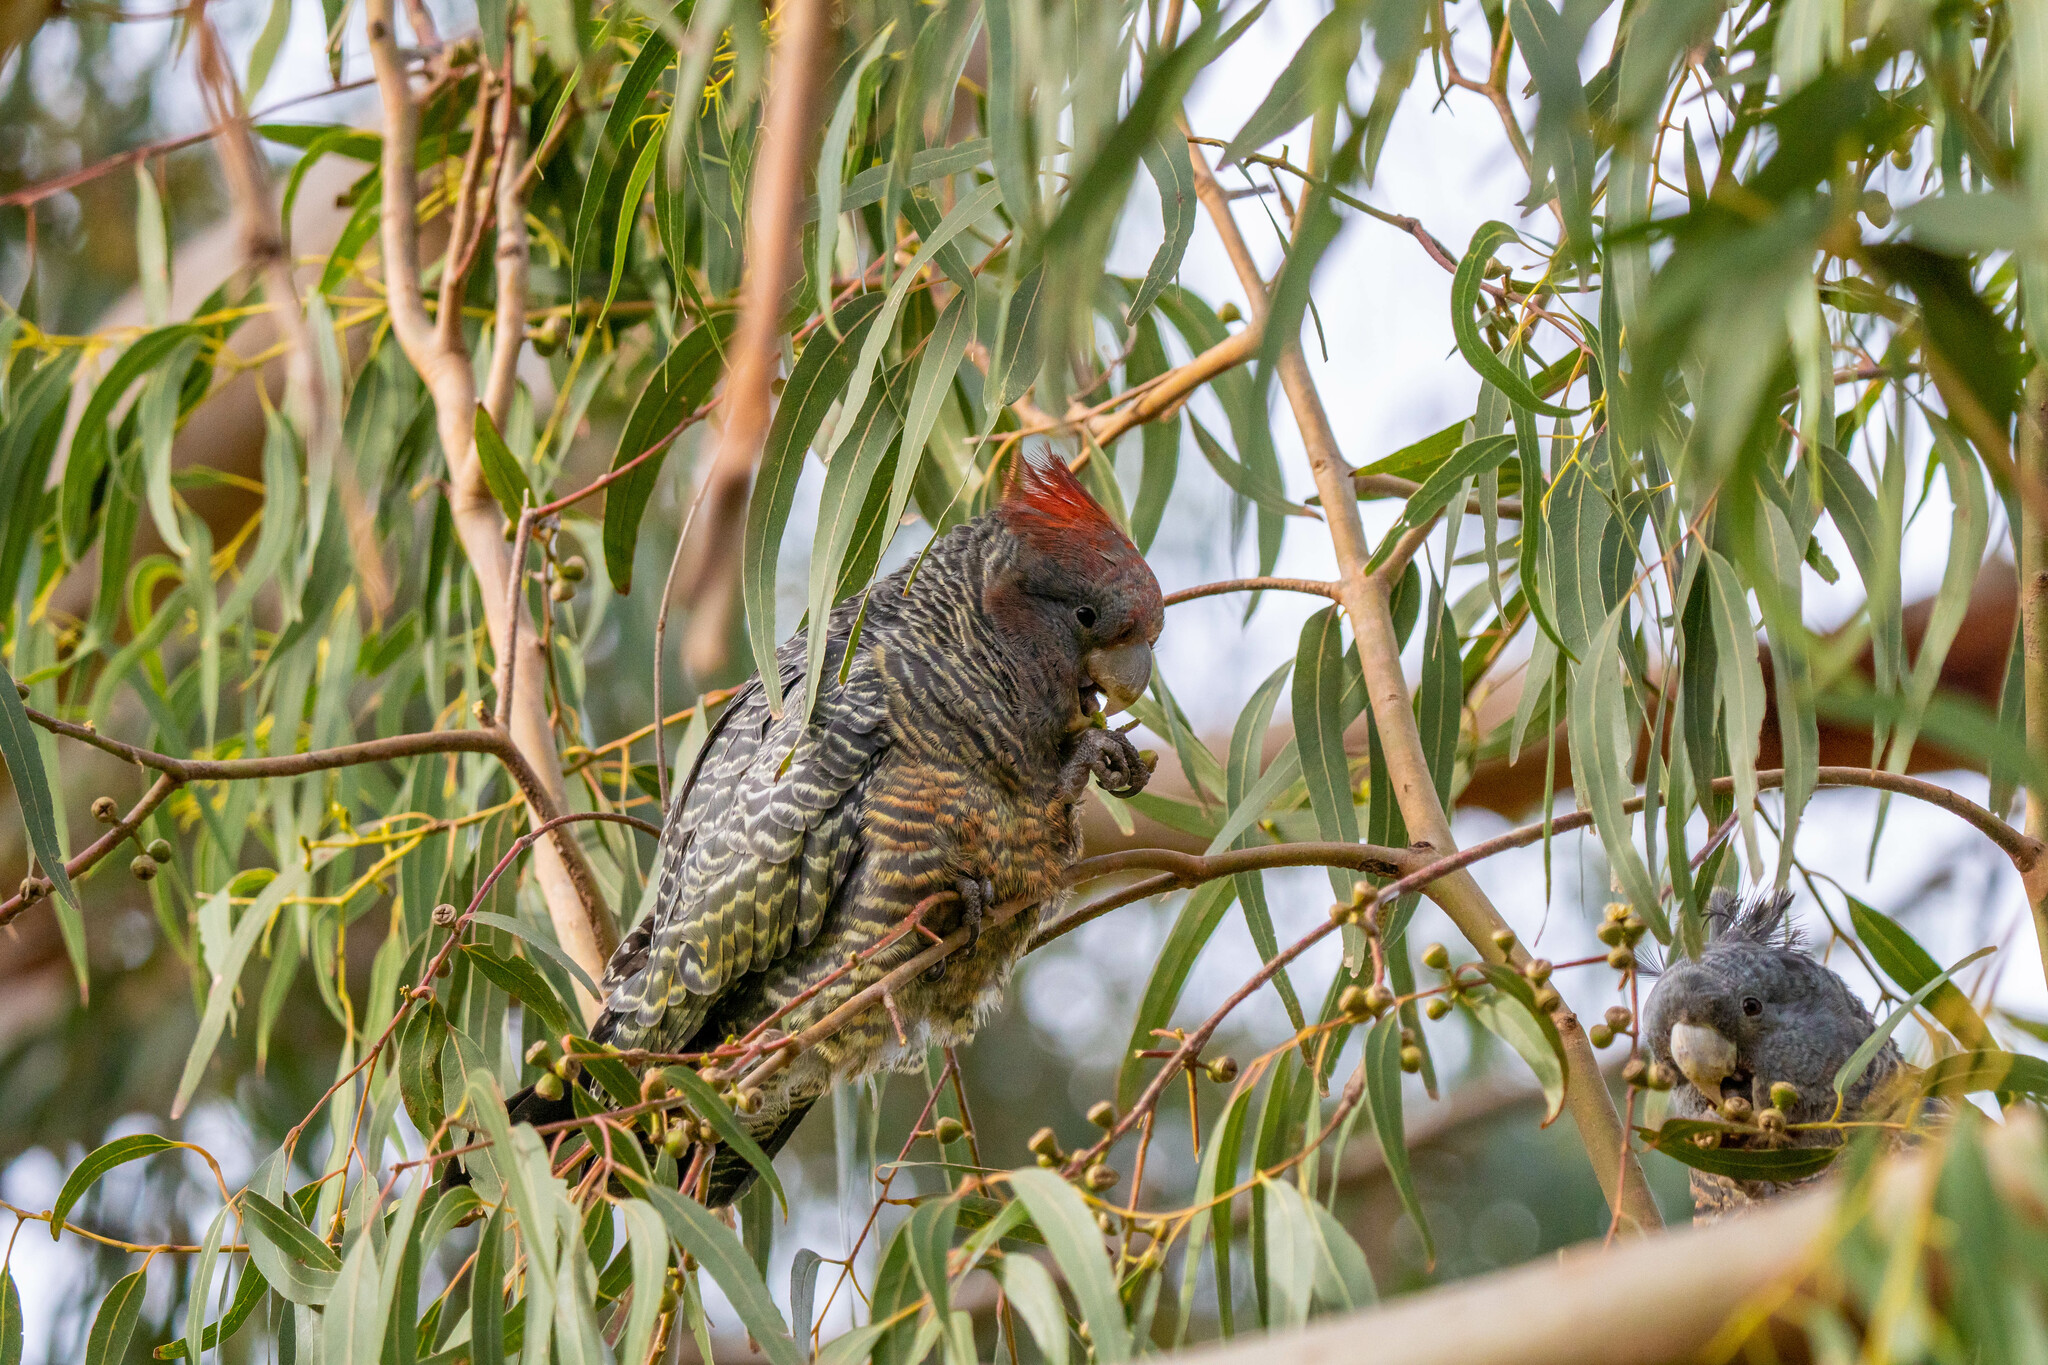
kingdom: Animalia
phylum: Chordata
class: Aves
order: Psittaciformes
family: Psittacidae
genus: Callocephalon
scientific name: Callocephalon fimbriatum
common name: Gang-gang cockatoo
